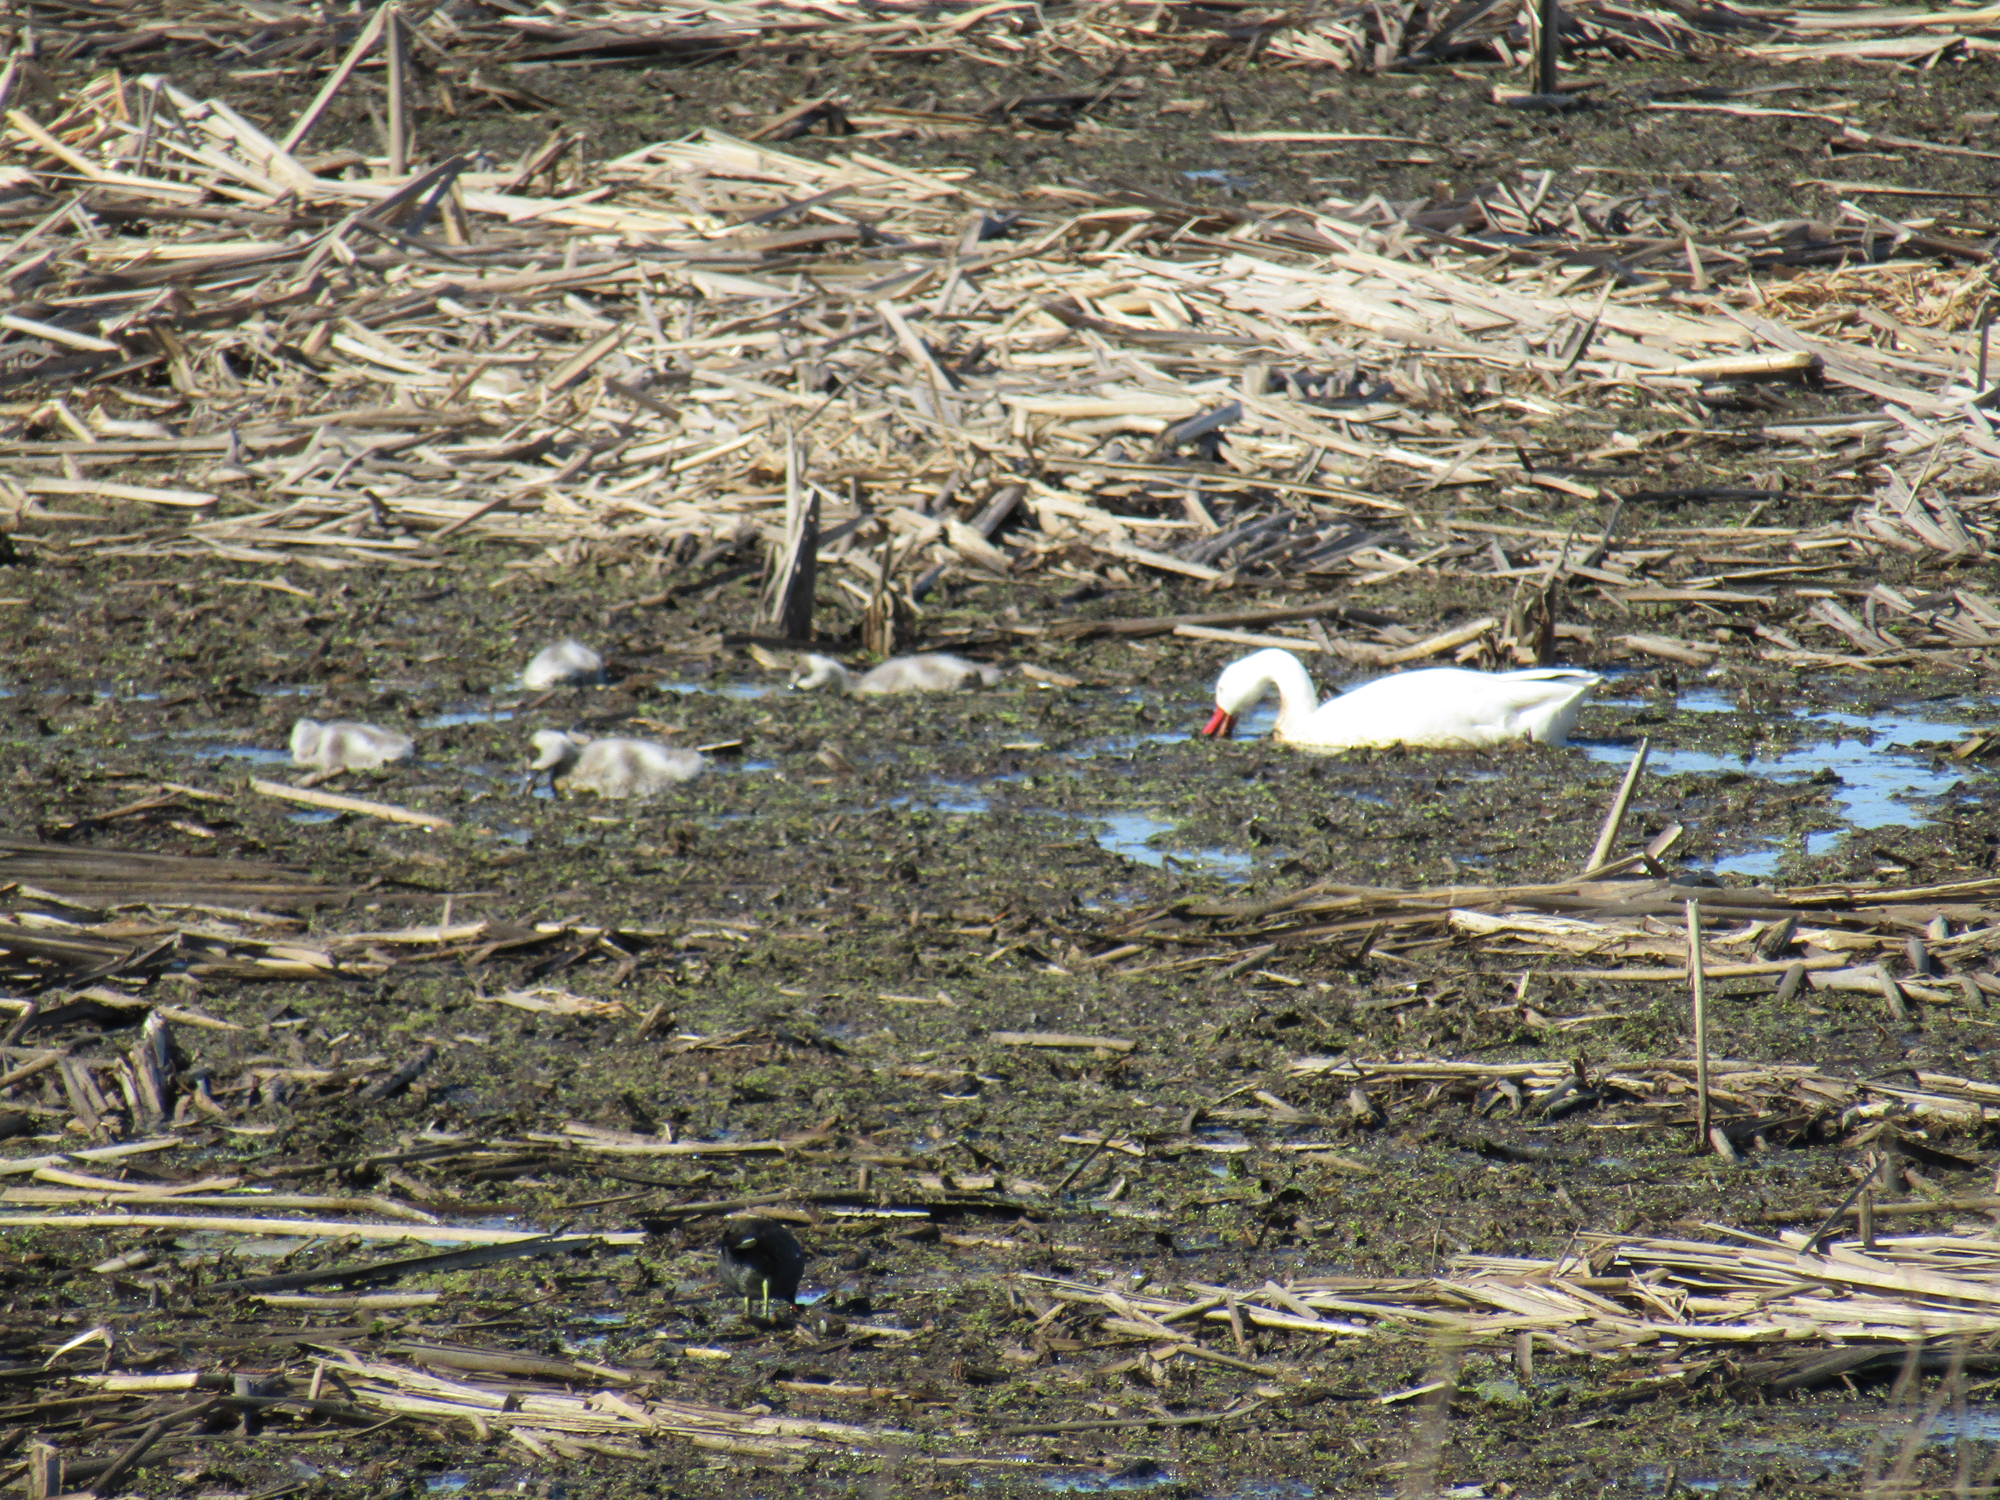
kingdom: Animalia
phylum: Chordata
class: Aves
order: Anseriformes
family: Anatidae
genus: Coscoroba
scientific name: Coscoroba coscoroba
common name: Coscoroba swan
